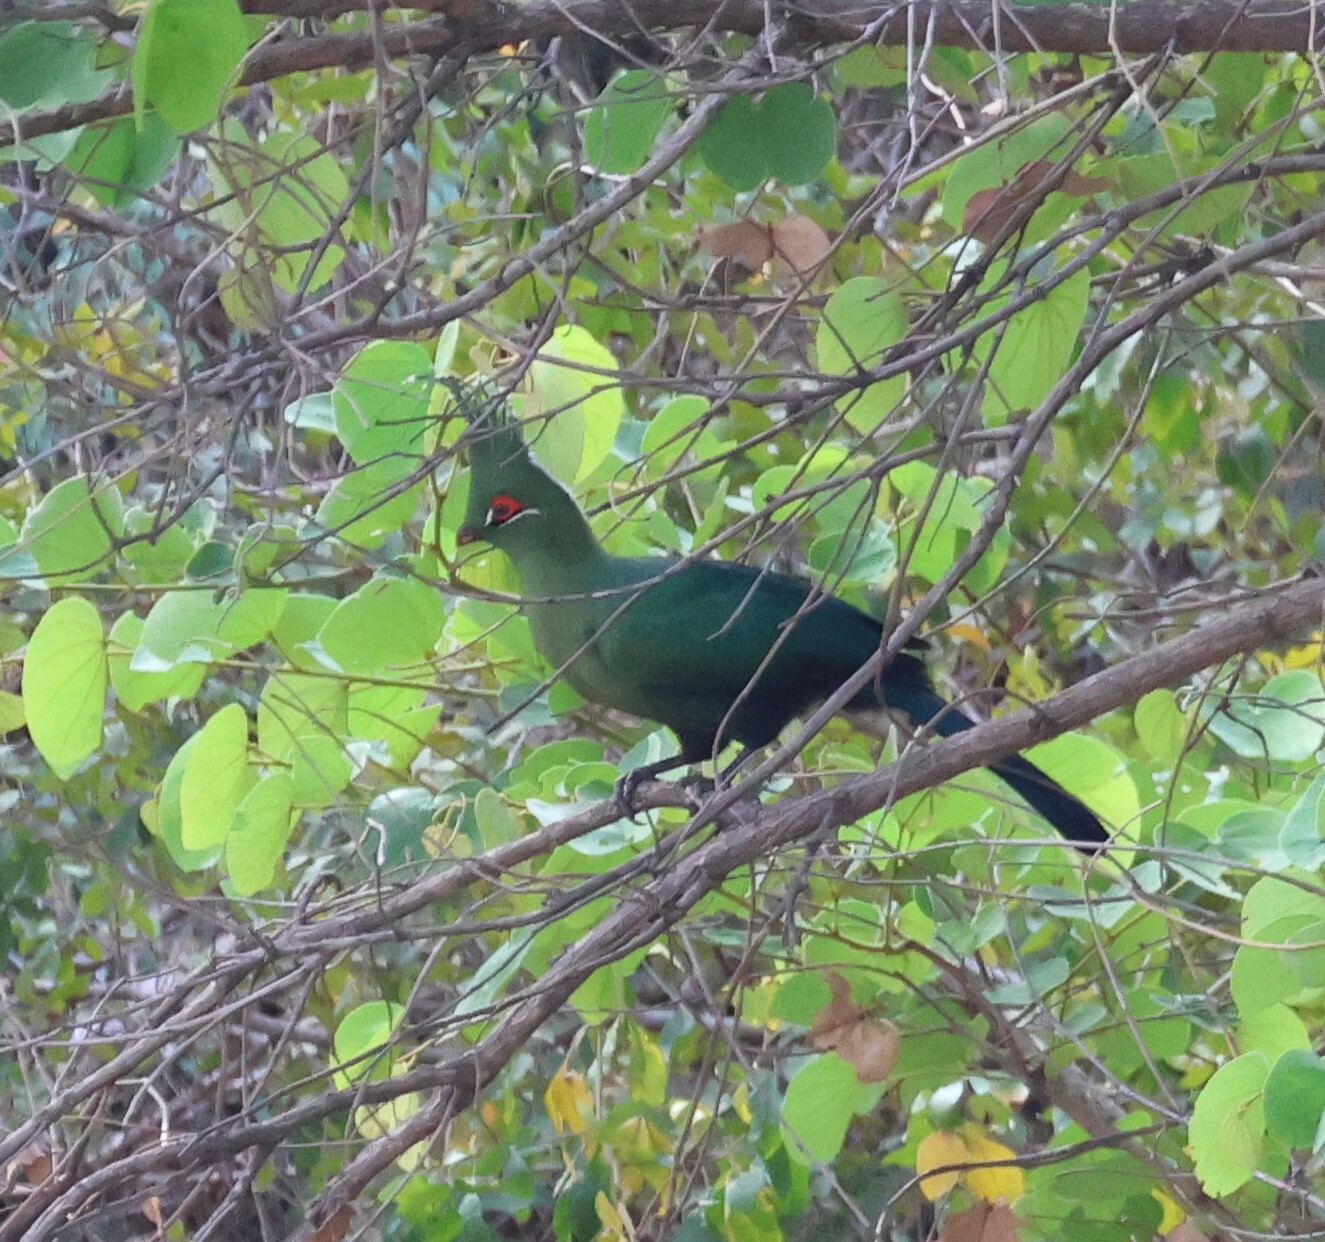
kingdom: Animalia
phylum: Chordata
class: Aves
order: Musophagiformes
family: Musophagidae
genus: Tauraco
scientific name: Tauraco schalowi
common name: Schalow's turaco
